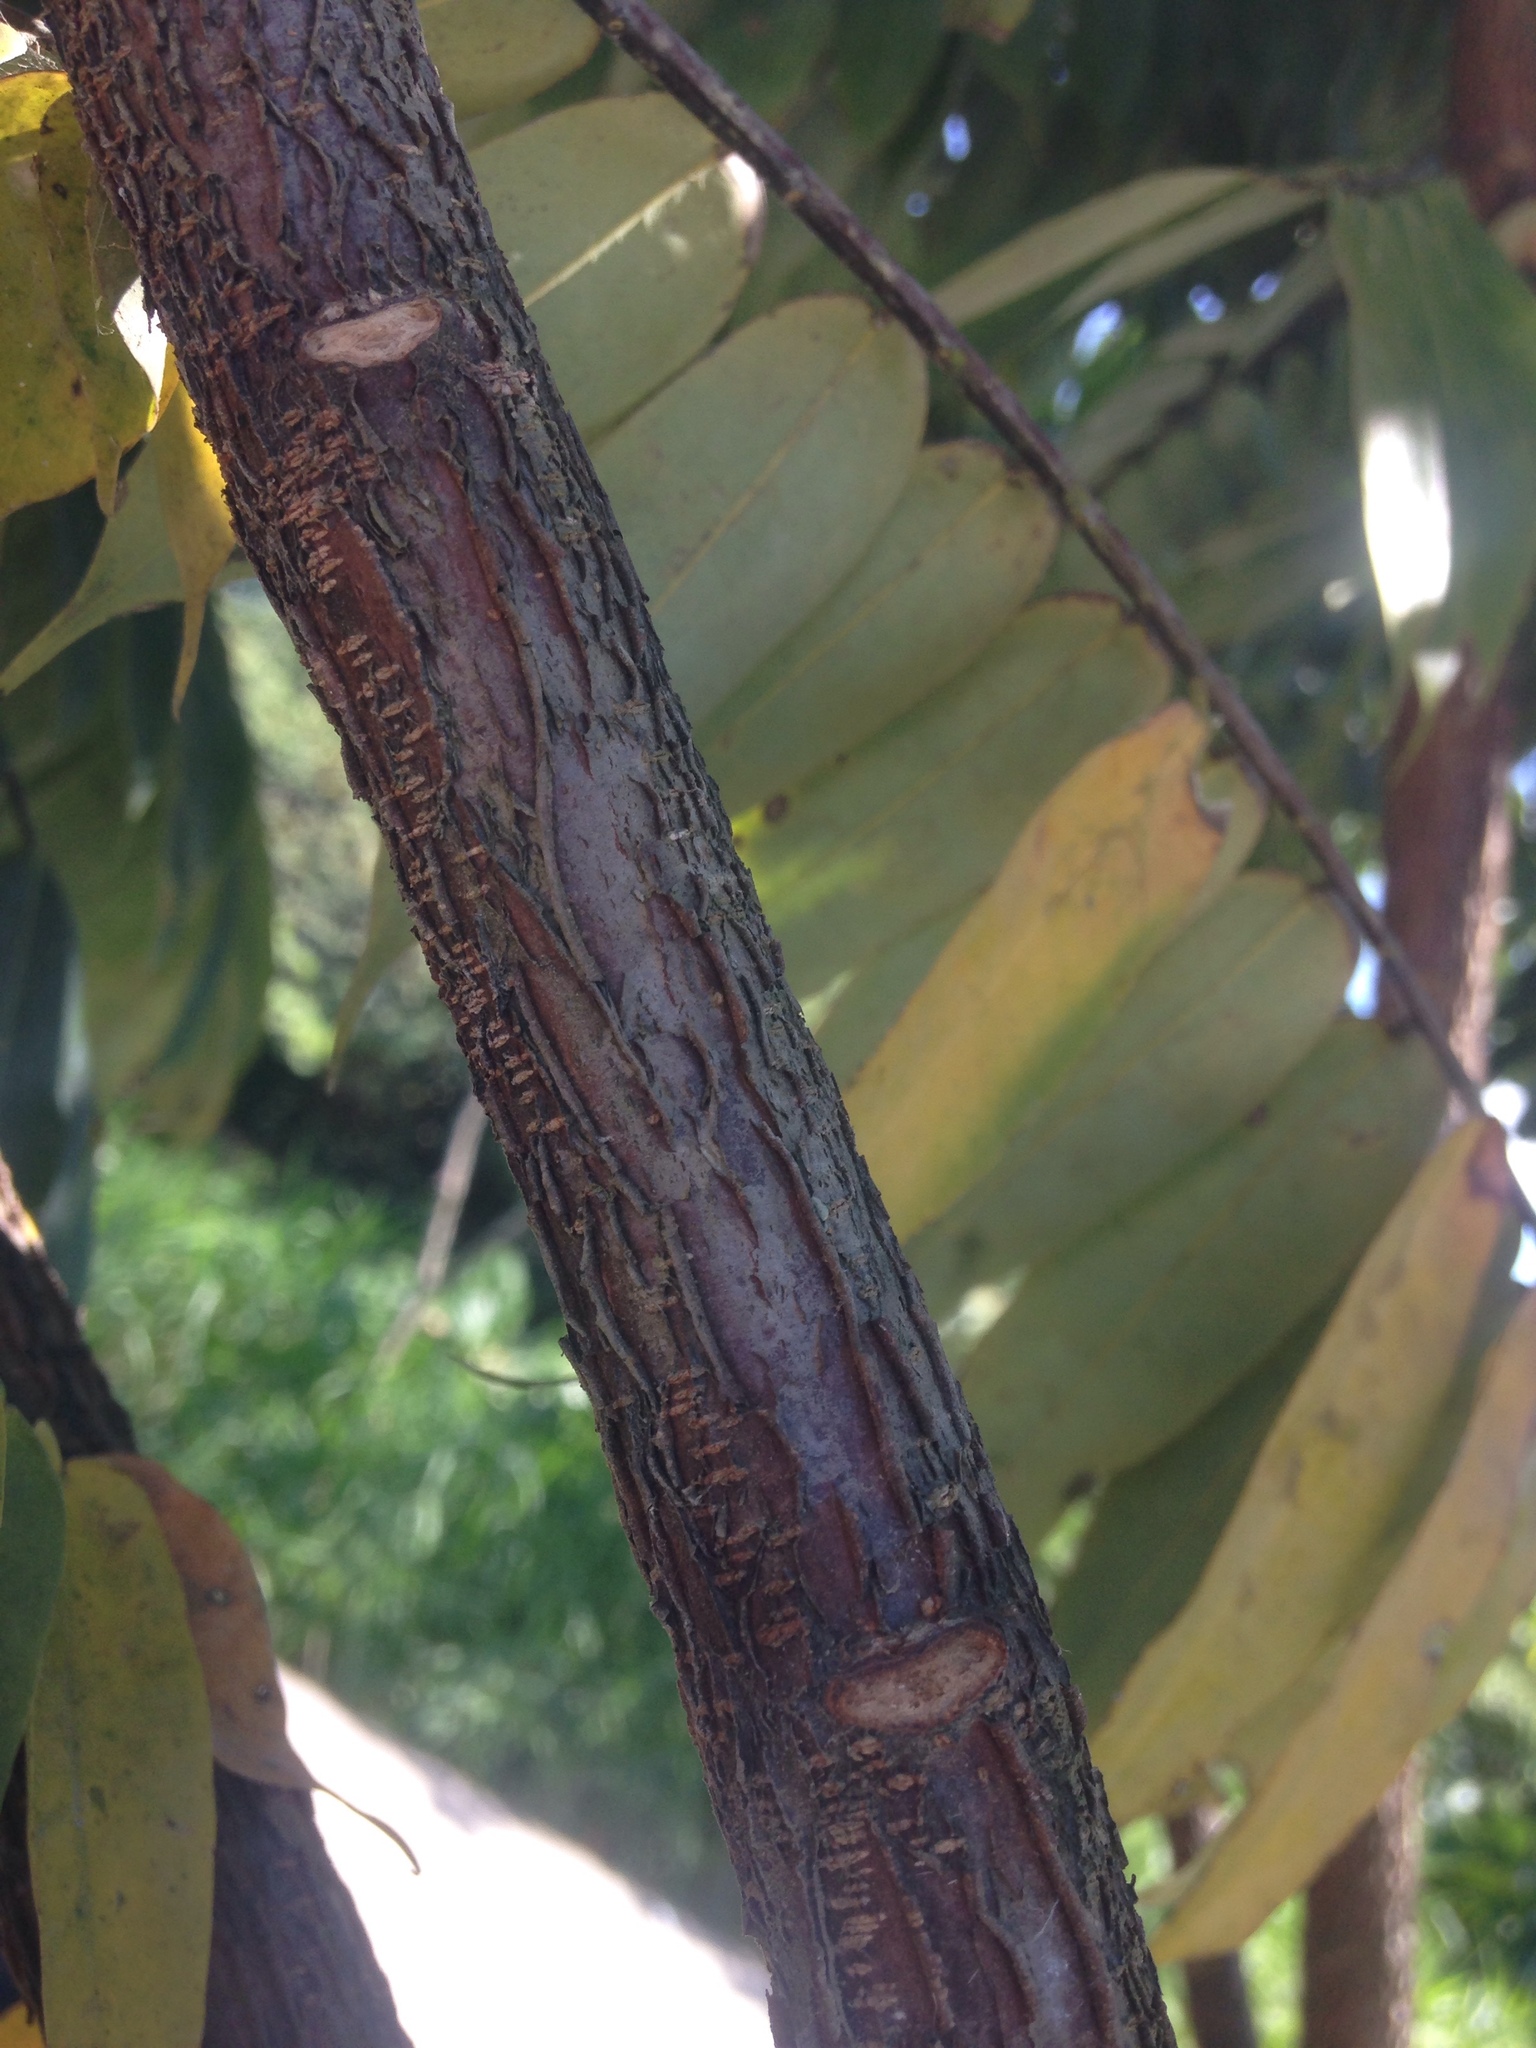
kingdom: Plantae
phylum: Tracheophyta
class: Magnoliopsida
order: Fabales
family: Fabaceae
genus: Brownea
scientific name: Brownea ariza
